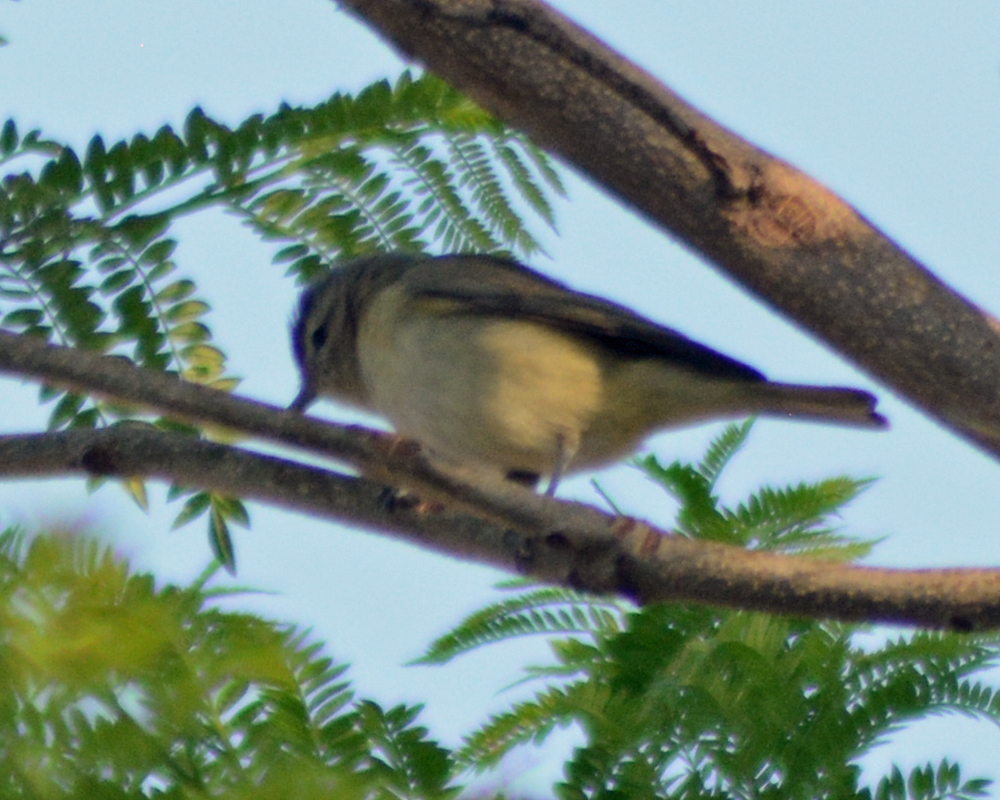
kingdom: Animalia
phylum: Chordata
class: Aves
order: Passeriformes
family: Vireonidae
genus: Vireo
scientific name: Vireo gilvus
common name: Warbling vireo
